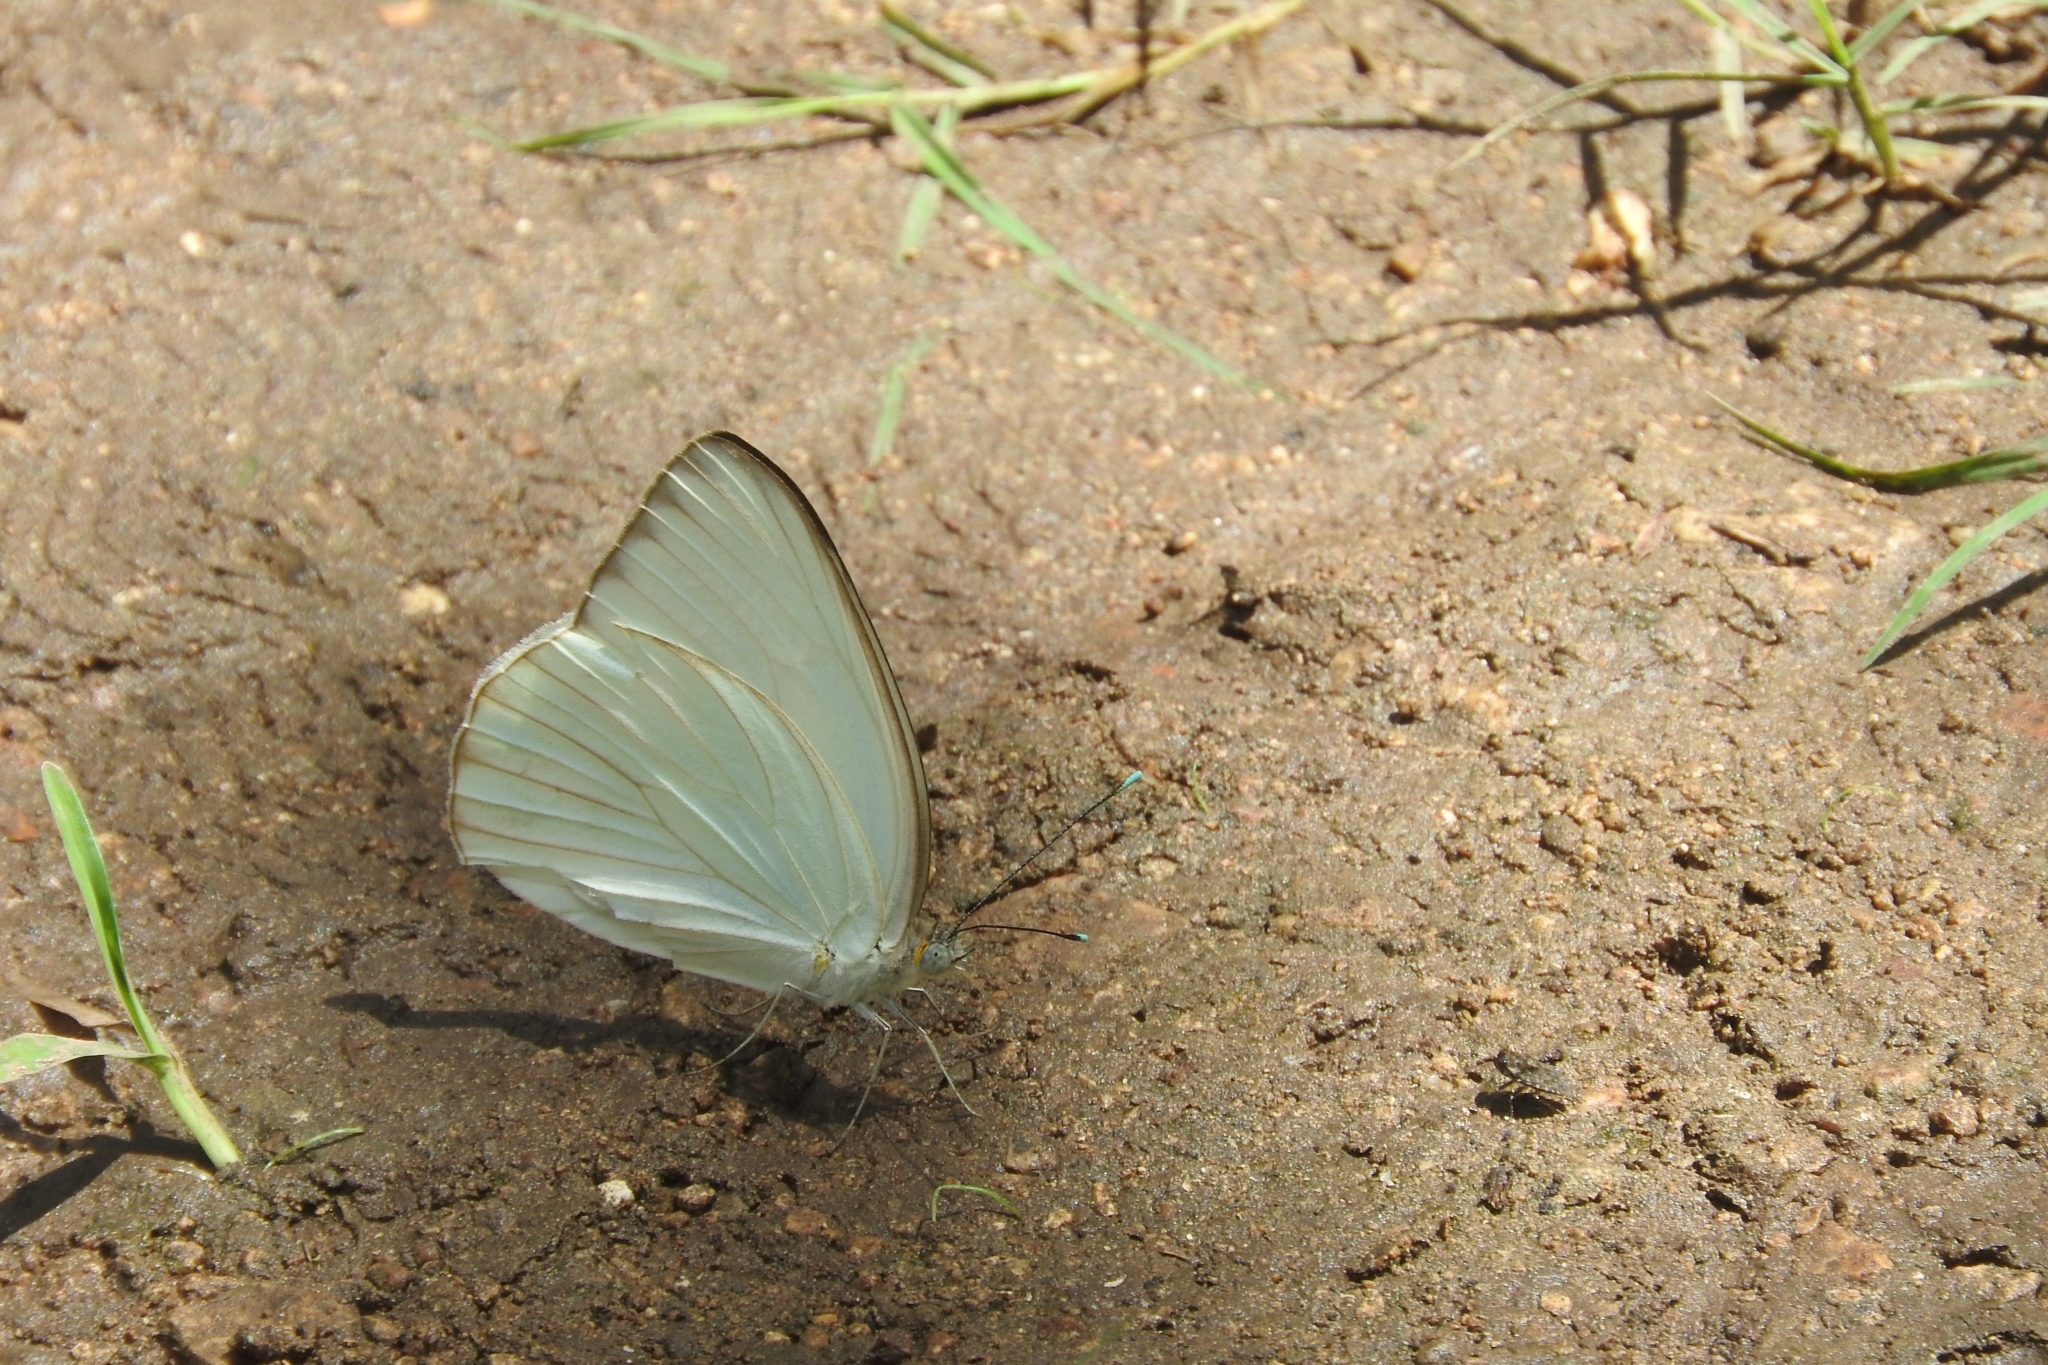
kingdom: Animalia
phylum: Arthropoda
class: Insecta
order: Lepidoptera
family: Pieridae
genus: Ascia
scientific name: Ascia monuste
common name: Great southern white
